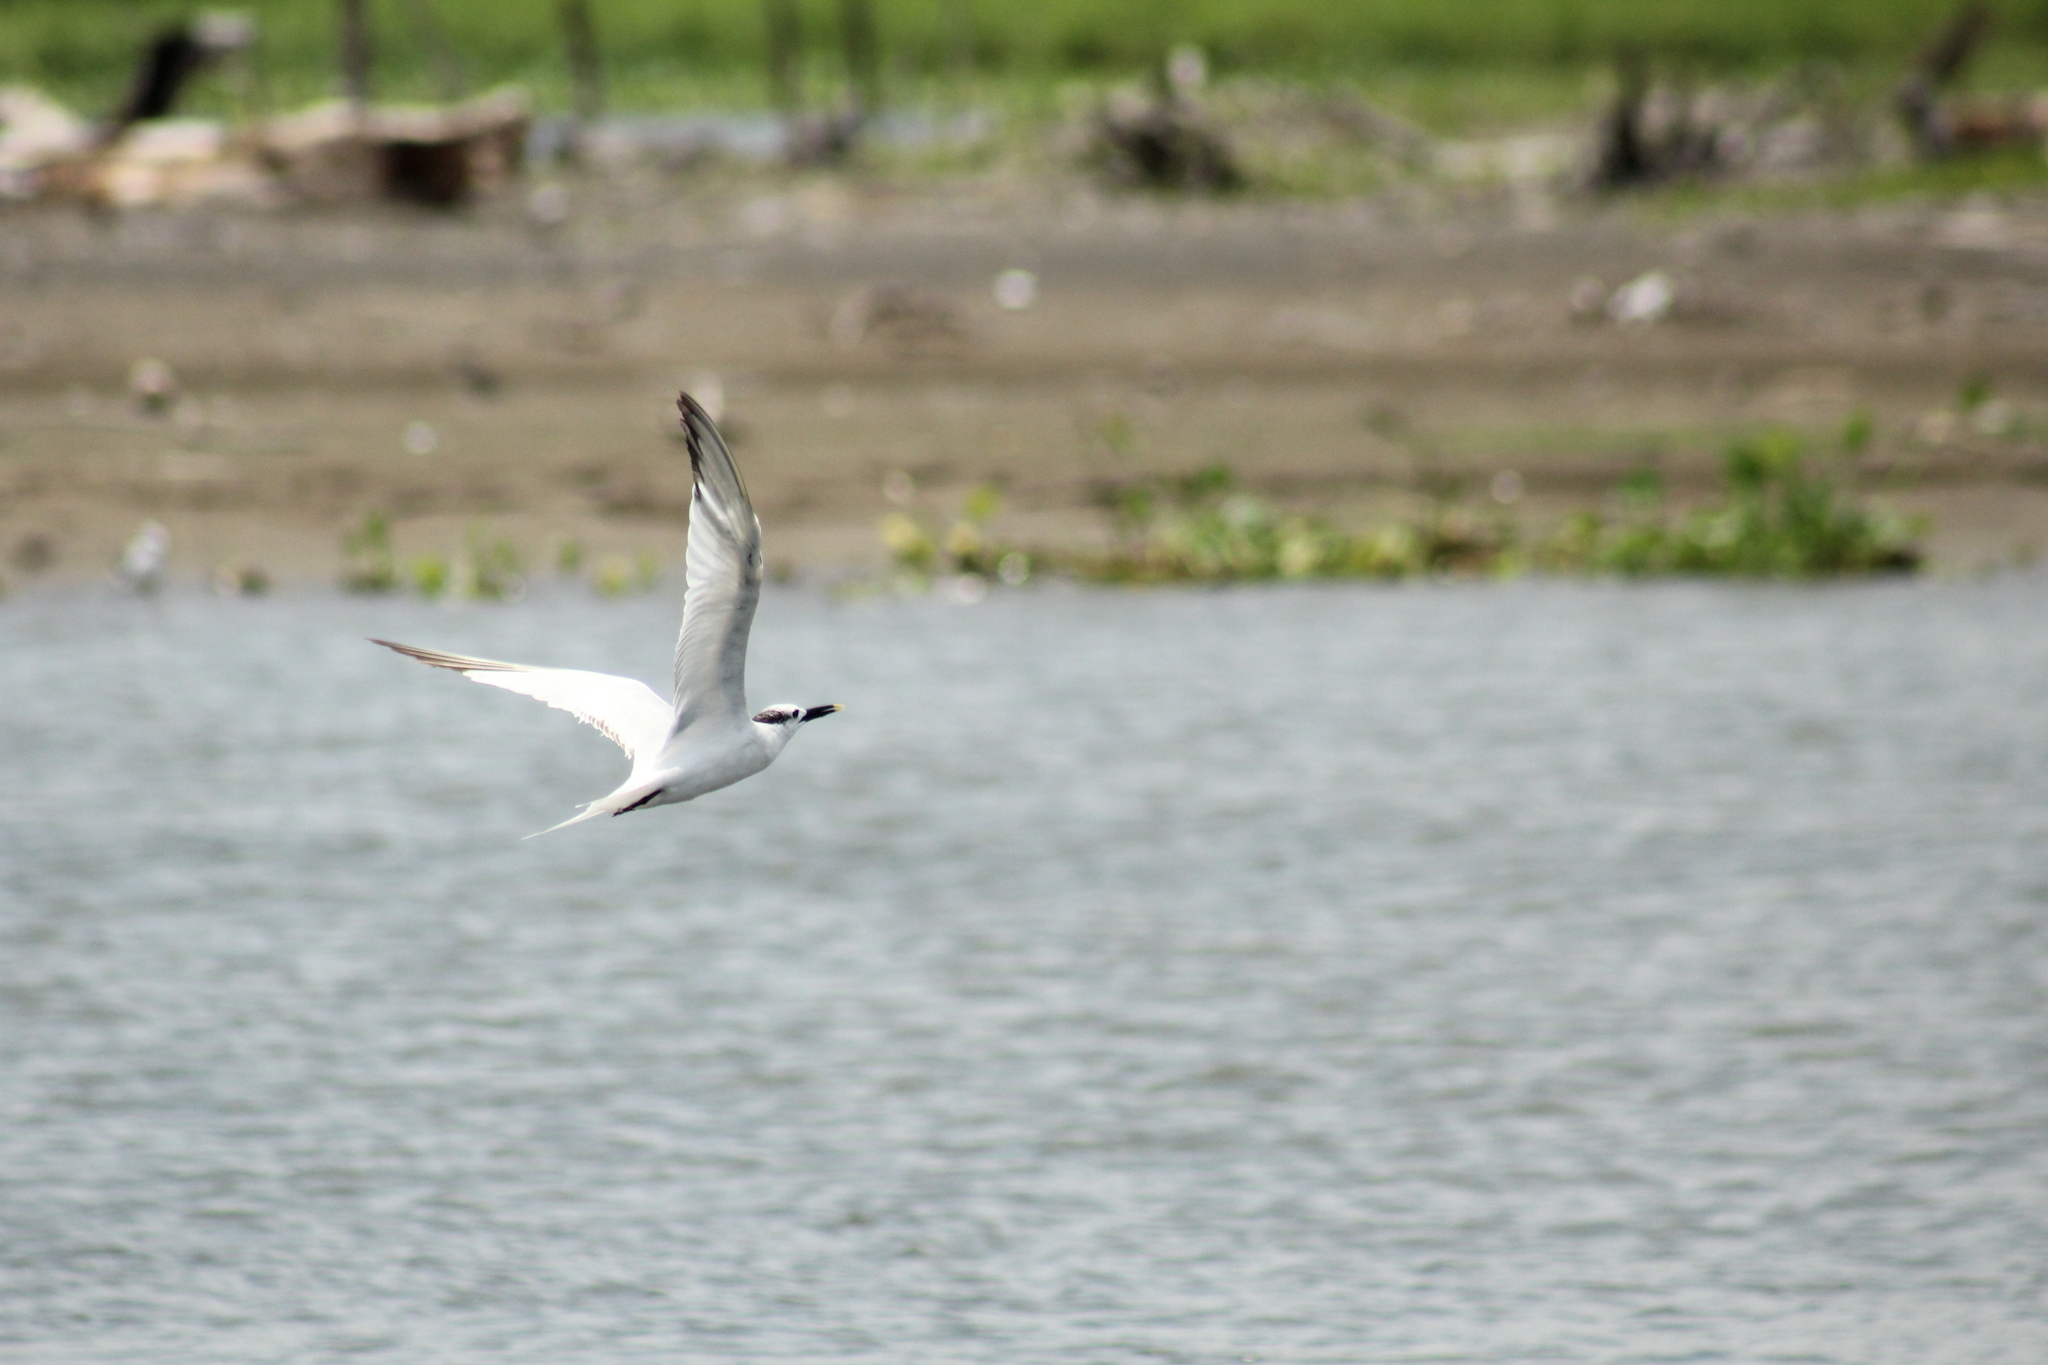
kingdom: Animalia
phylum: Chordata
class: Aves
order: Charadriiformes
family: Laridae
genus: Thalasseus
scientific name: Thalasseus sandvicensis
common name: Sandwich tern
